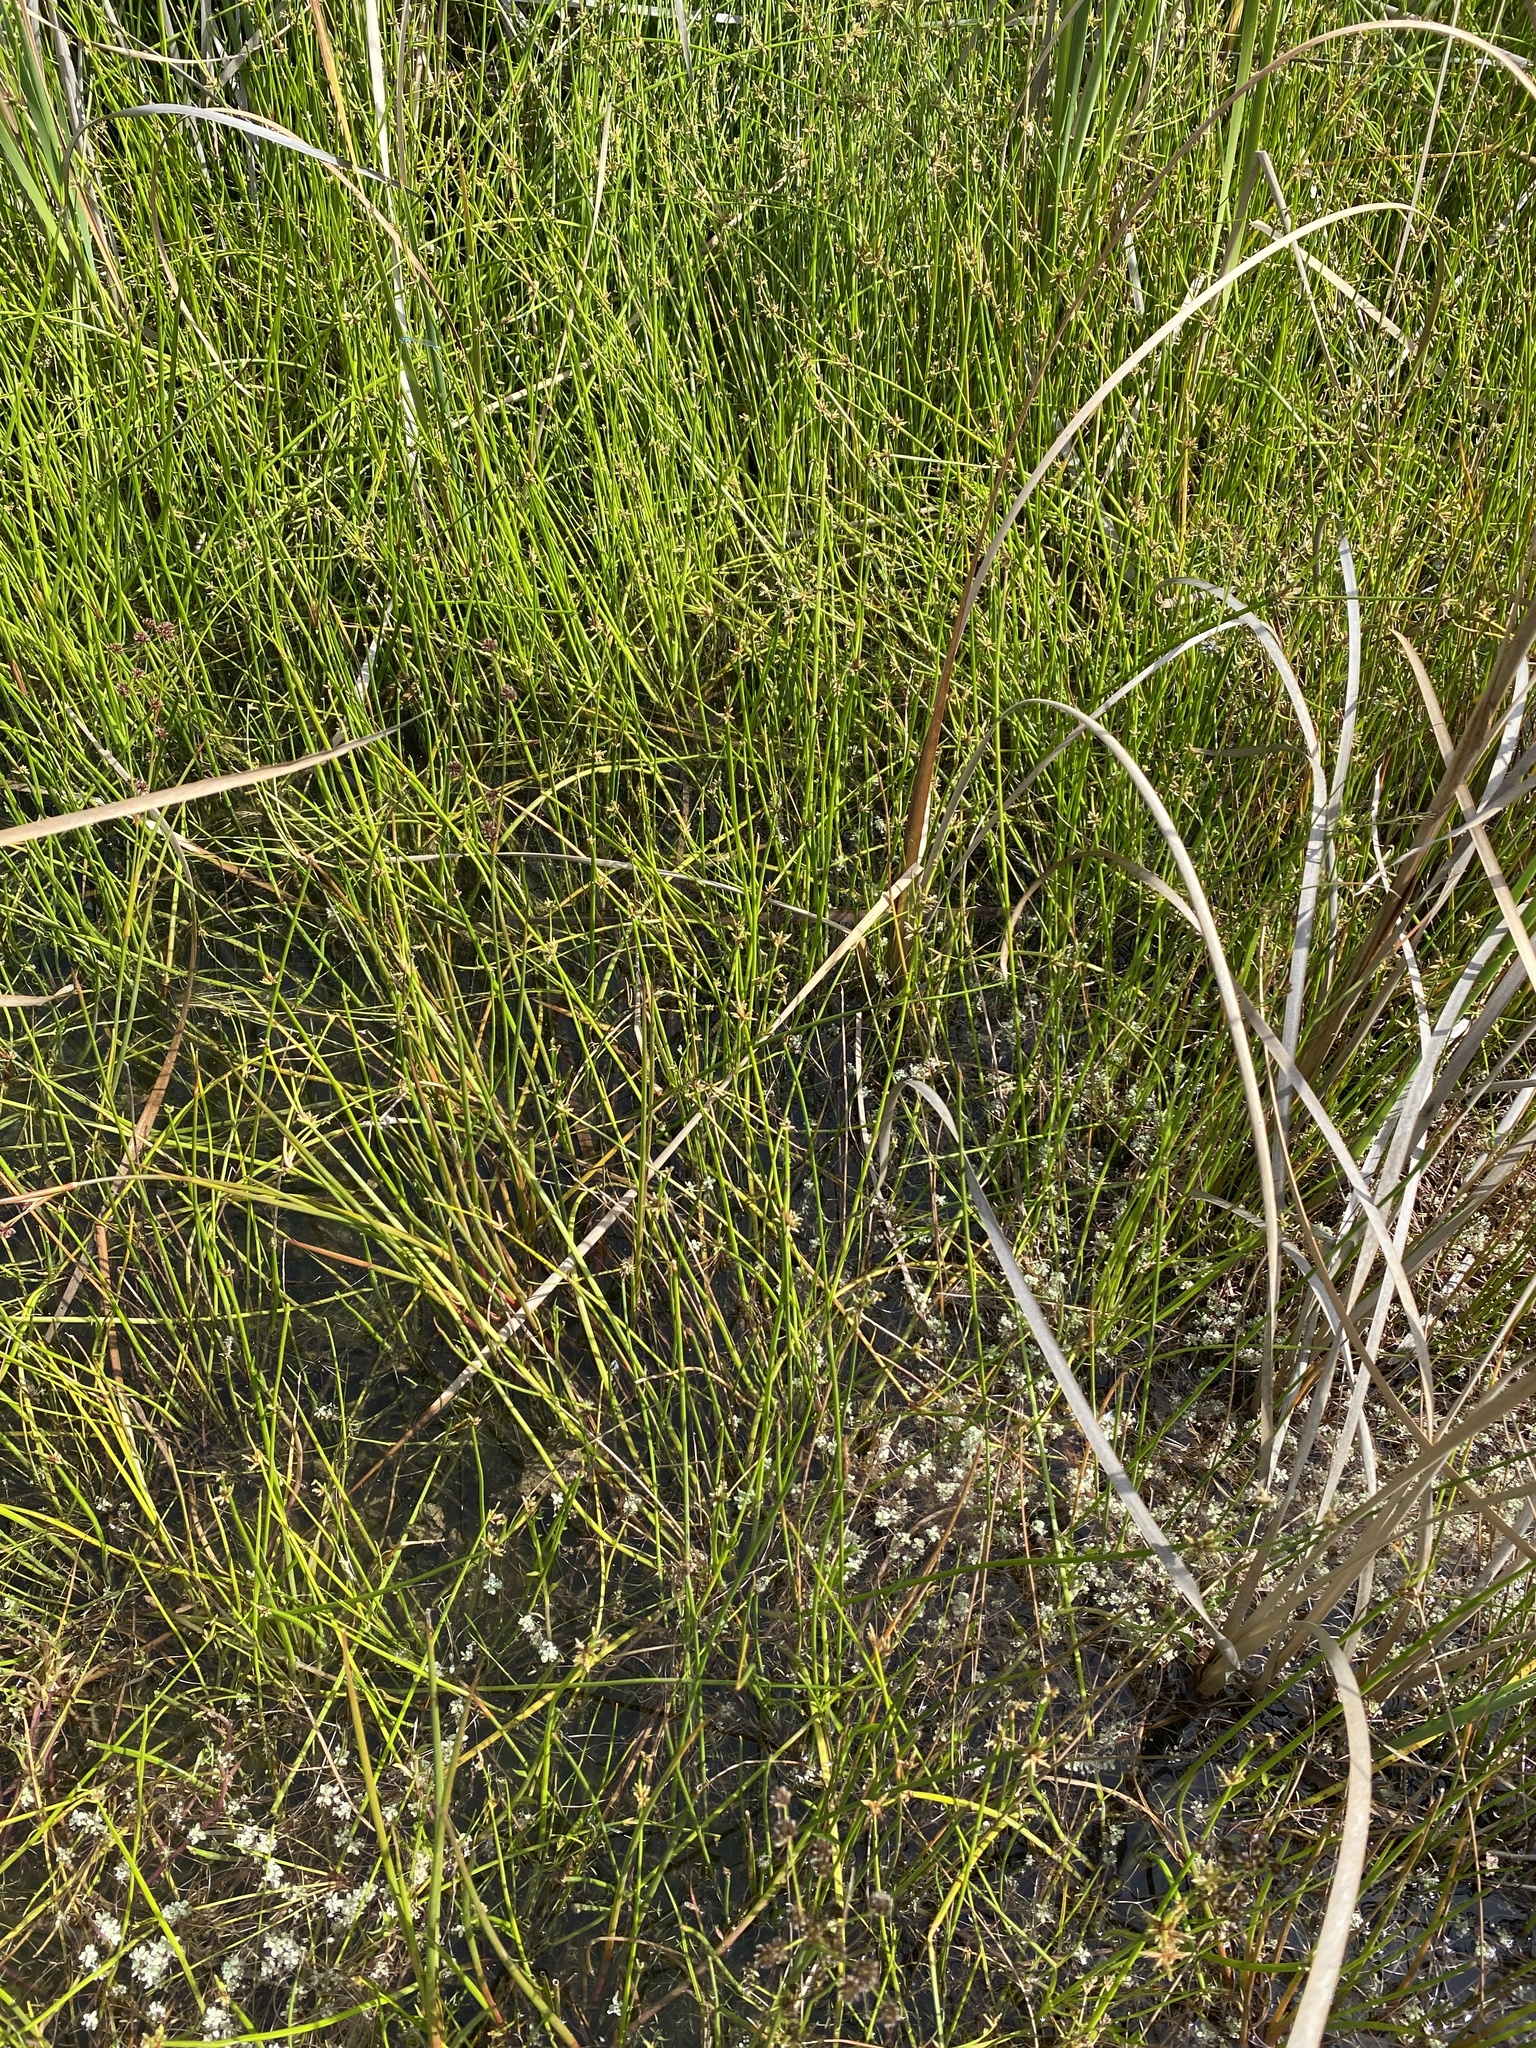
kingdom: Plantae
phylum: Tracheophyta
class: Liliopsida
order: Poales
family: Cyperaceae
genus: Schoenoplectiella
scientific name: Schoenoplectiella decipiens
